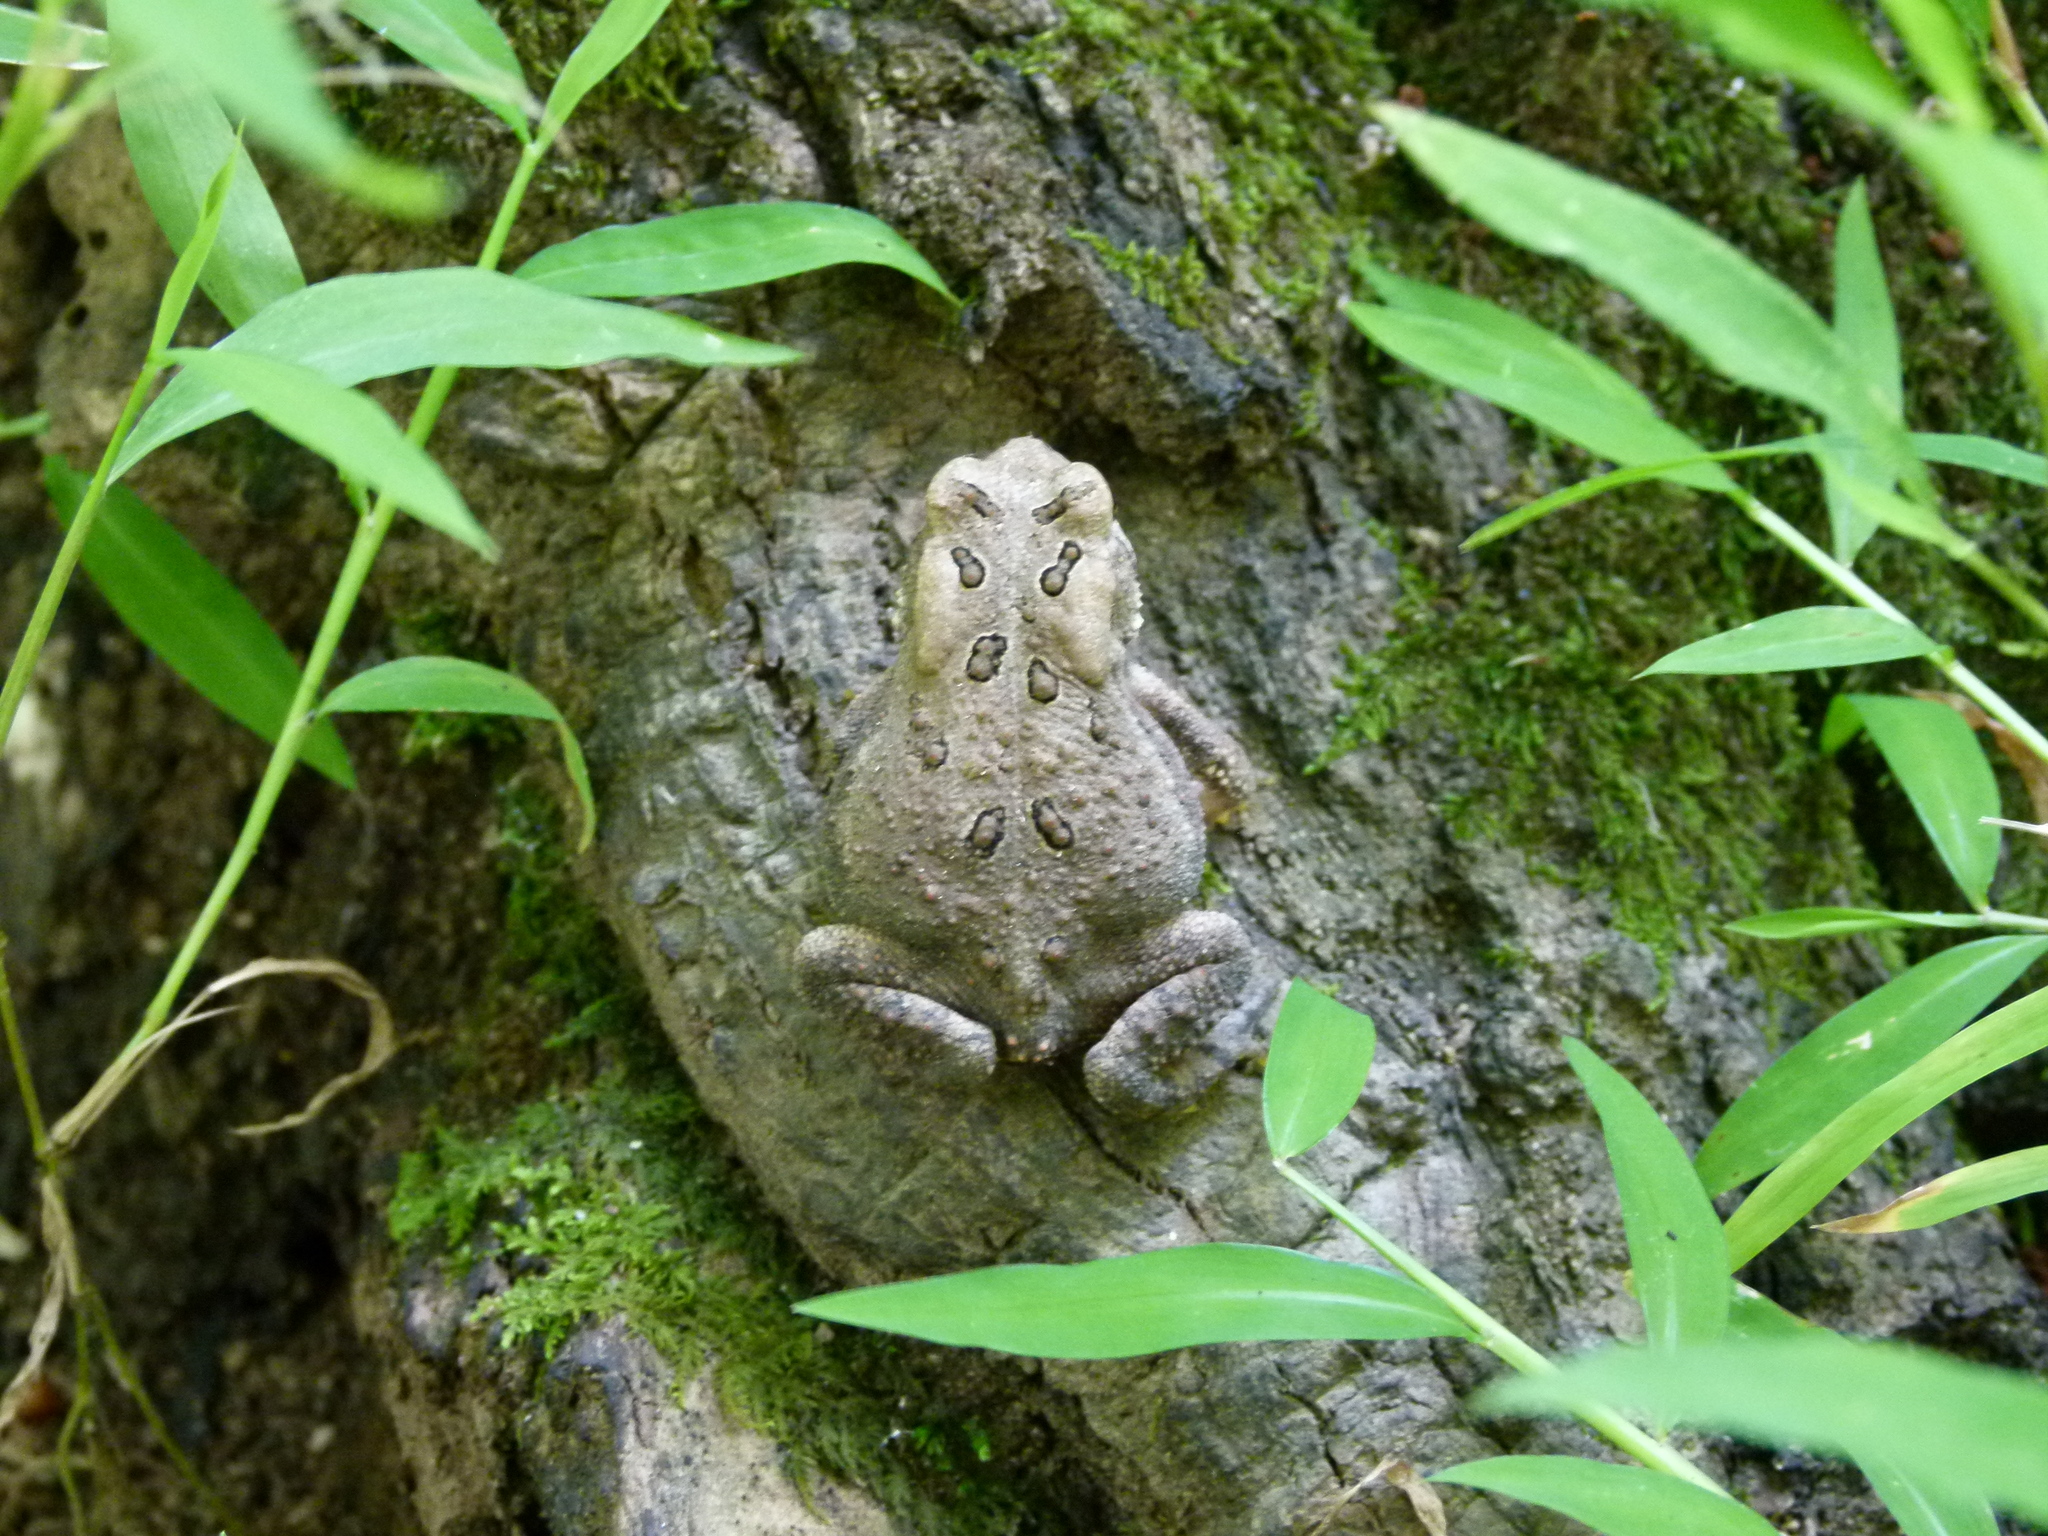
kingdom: Animalia
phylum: Chordata
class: Amphibia
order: Anura
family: Bufonidae
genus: Anaxyrus
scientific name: Anaxyrus americanus
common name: American toad
